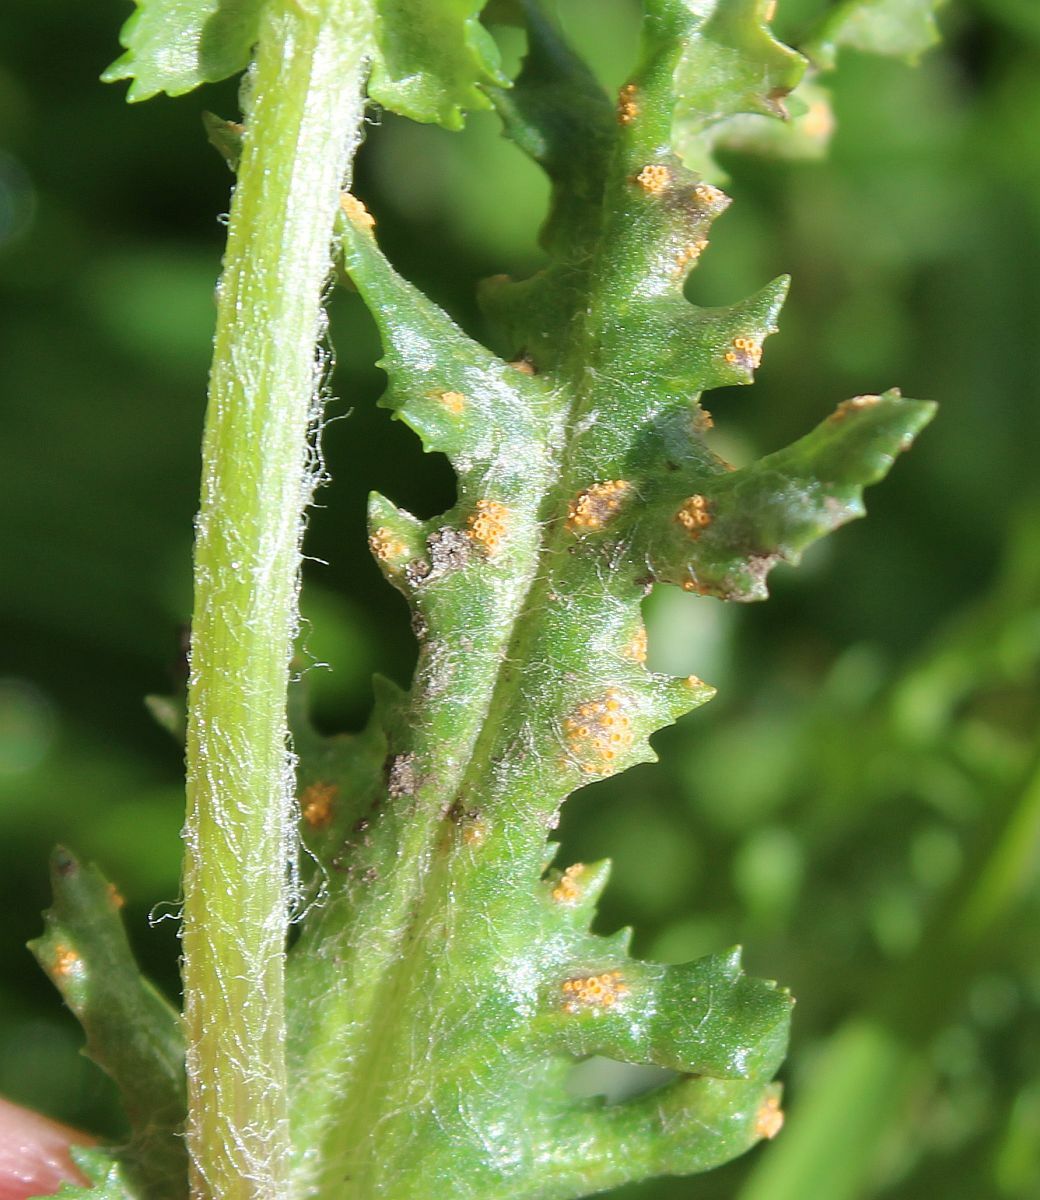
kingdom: Fungi
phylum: Basidiomycota
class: Pucciniomycetes
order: Pucciniales
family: Pucciniaceae
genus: Puccinia
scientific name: Puccinia lagenophorae
